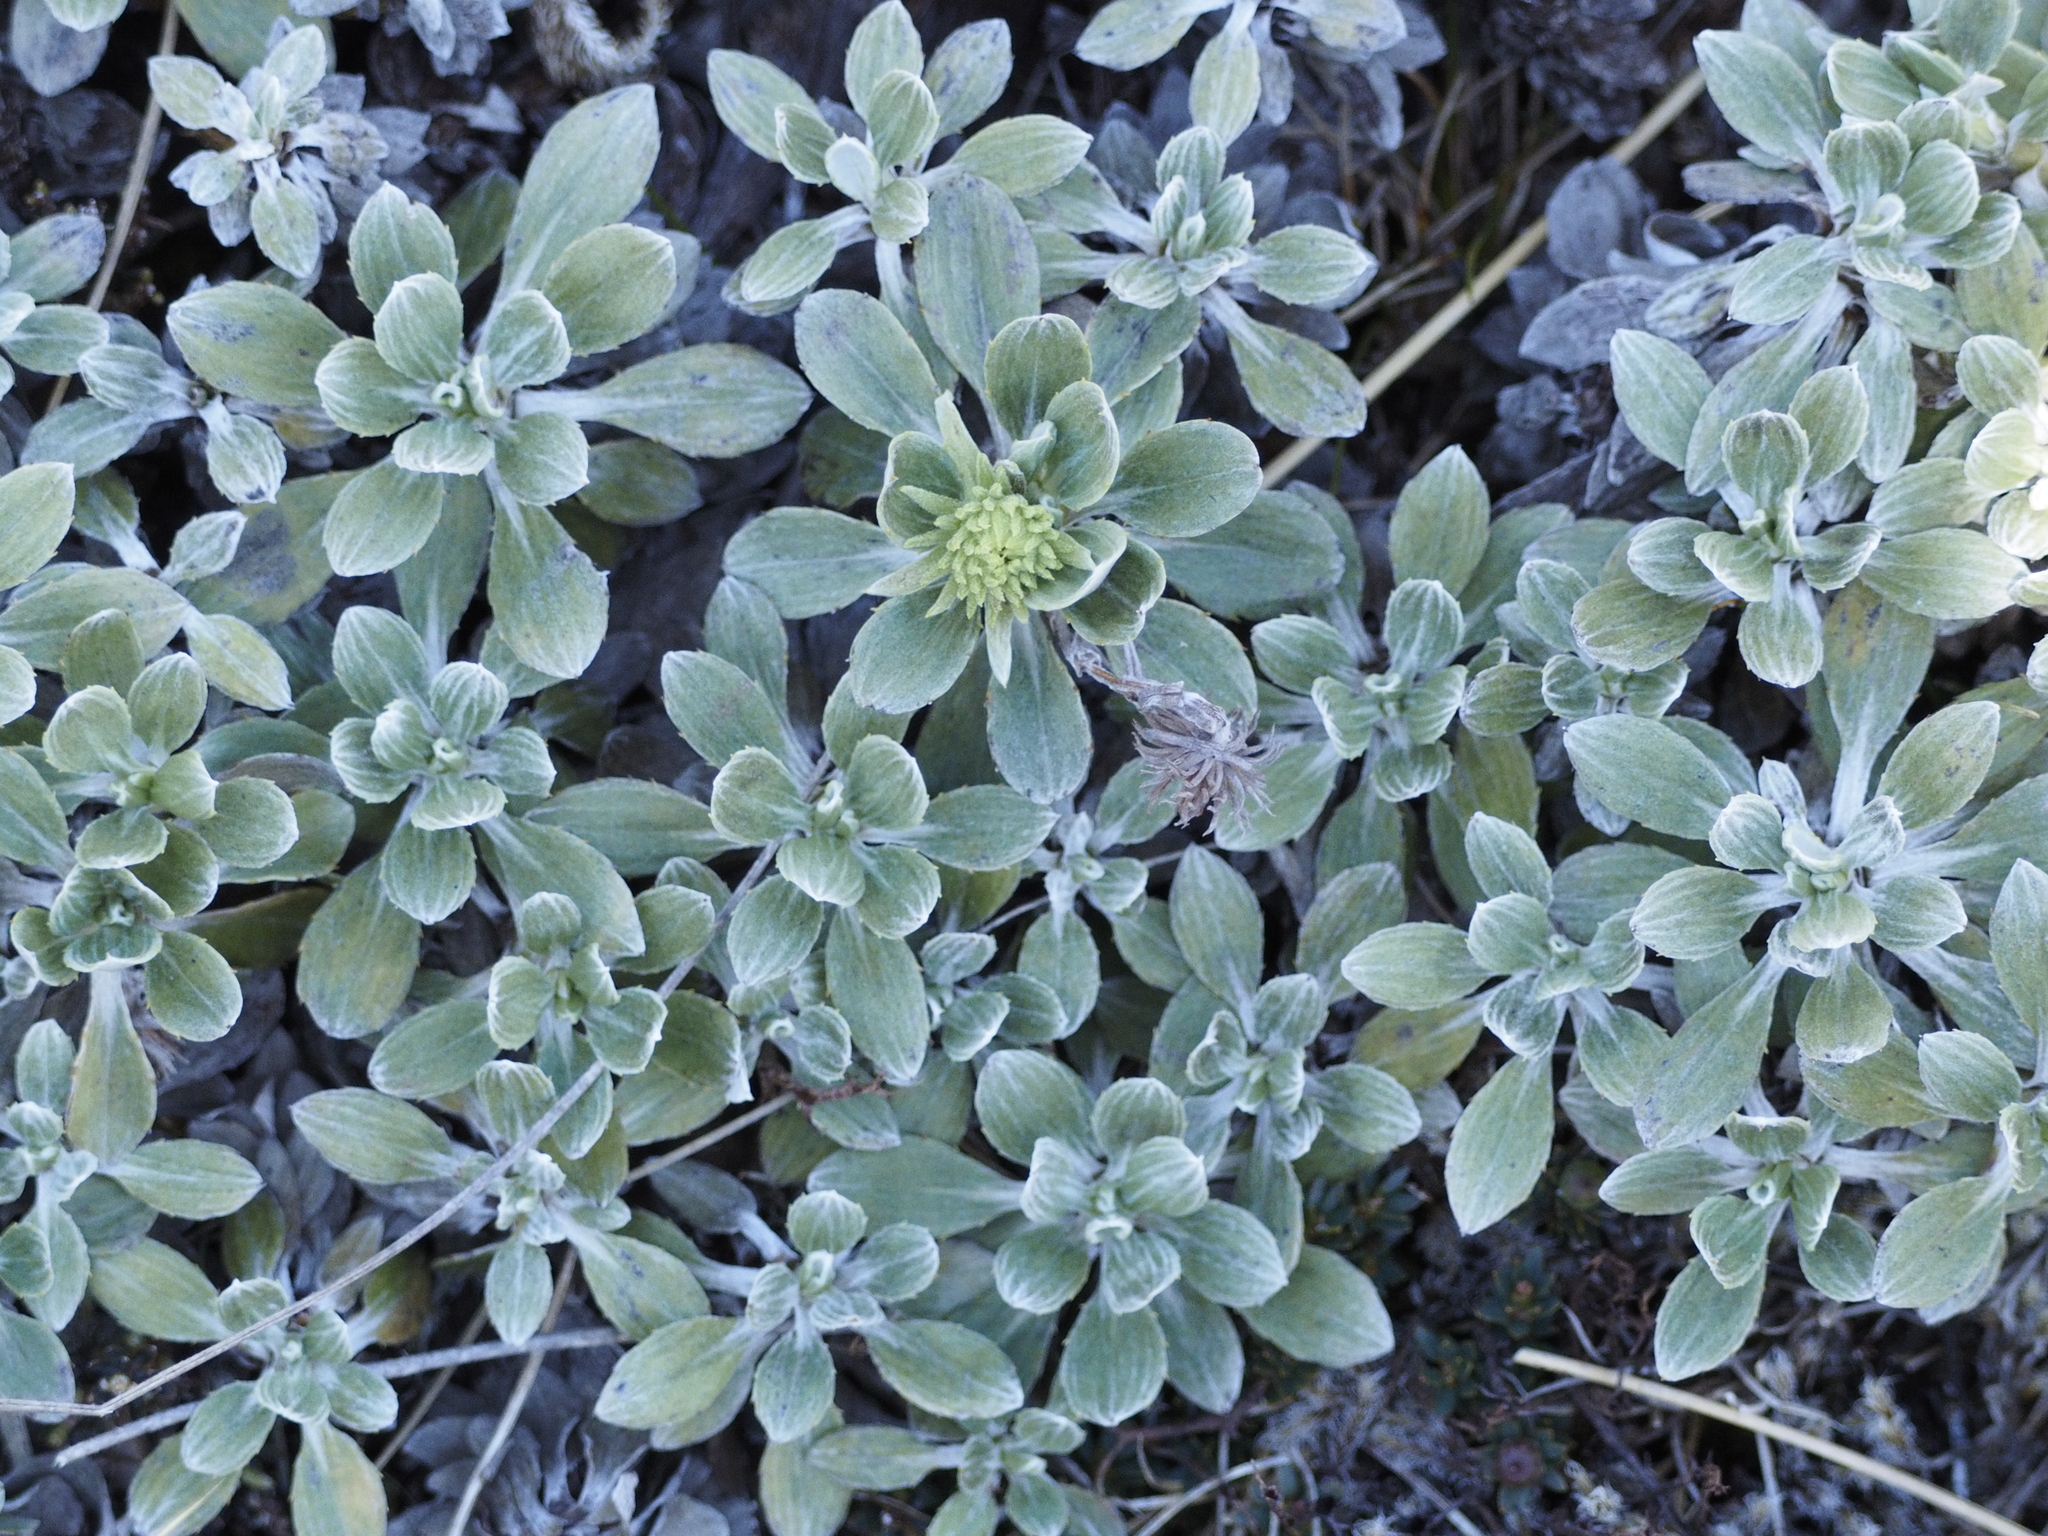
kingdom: Plantae
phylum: Tracheophyta
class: Magnoliopsida
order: Asterales
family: Asteraceae
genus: Celmisia
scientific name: Celmisia discolor
